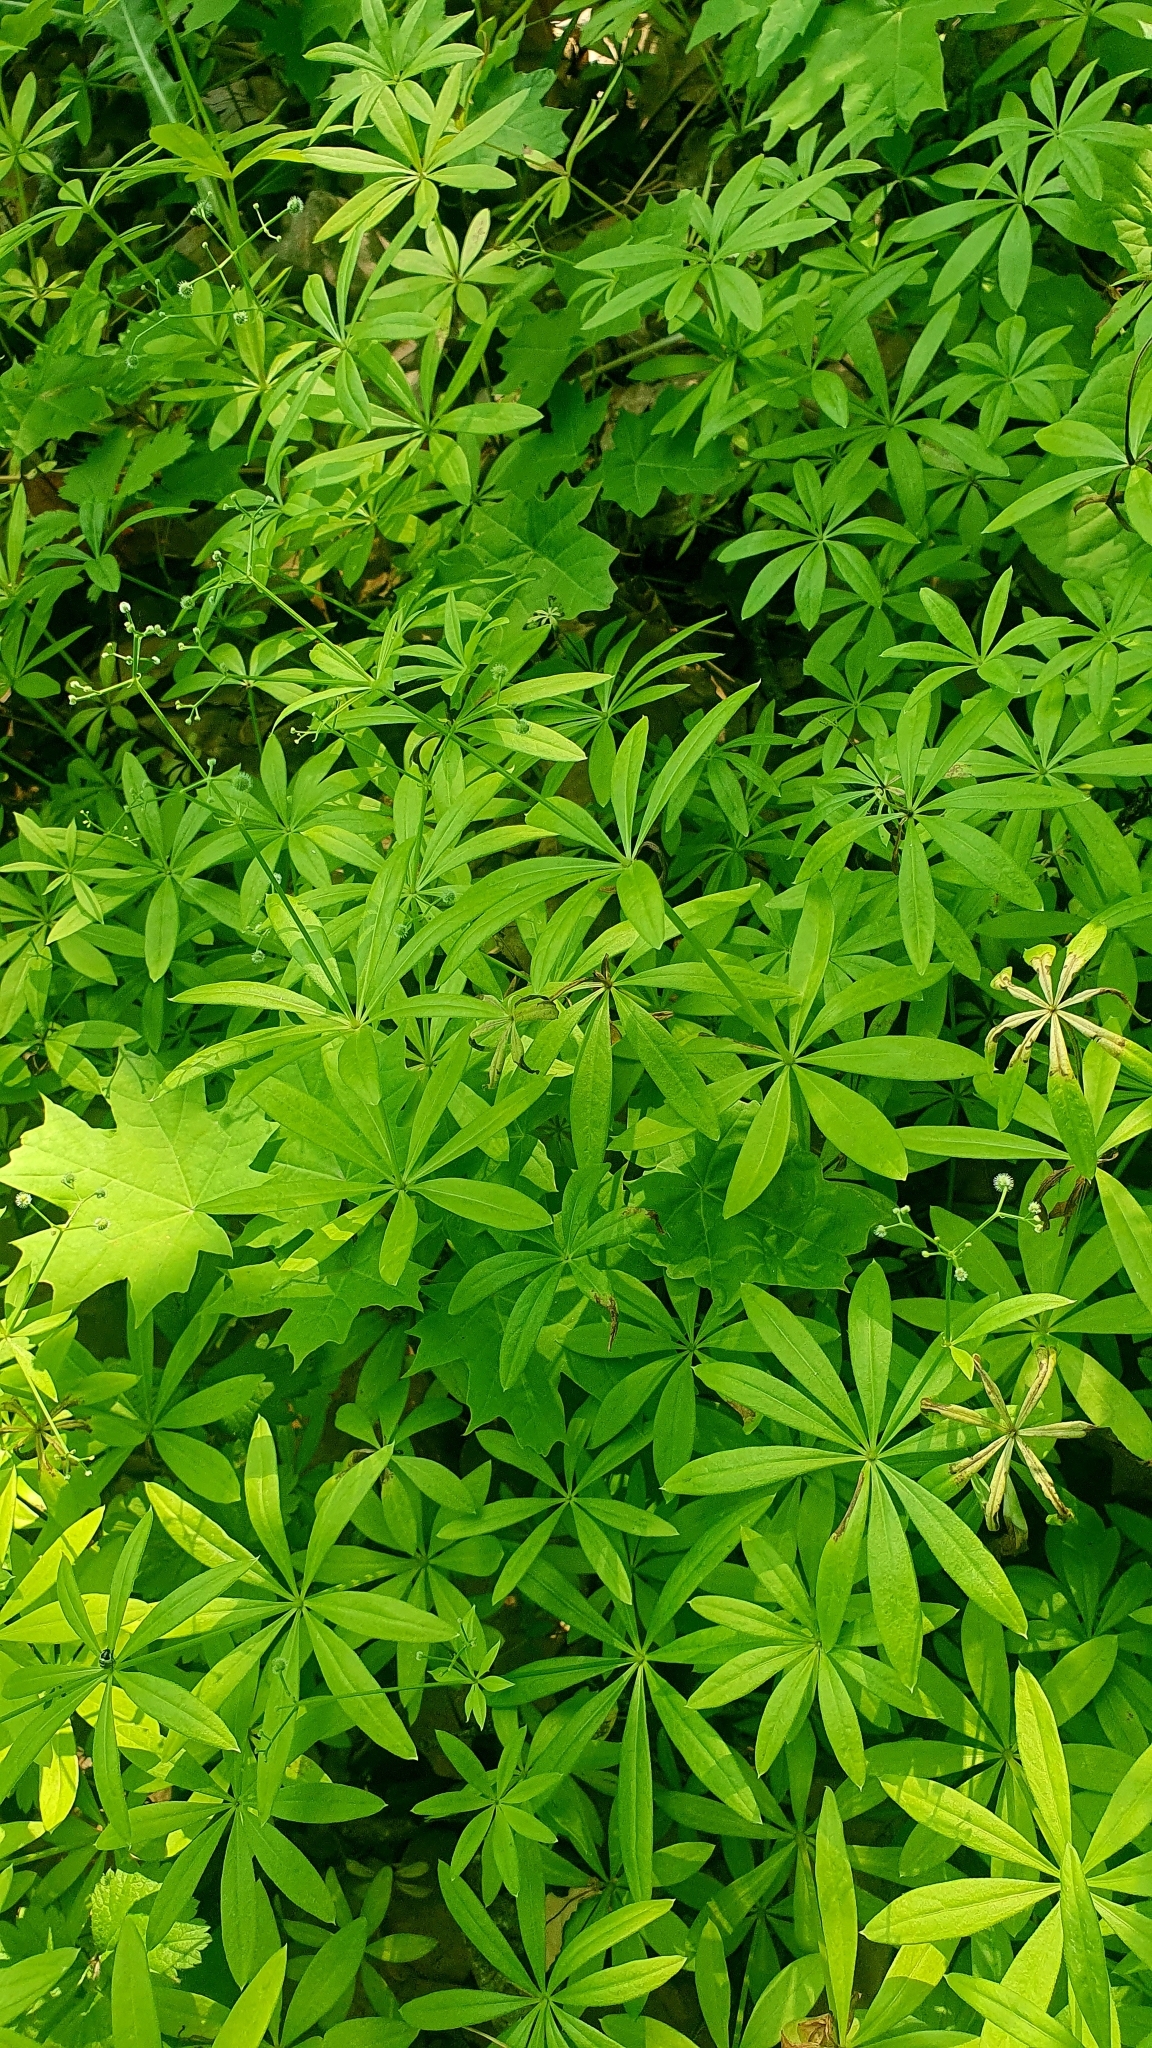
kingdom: Plantae
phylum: Tracheophyta
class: Magnoliopsida
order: Gentianales
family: Rubiaceae
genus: Galium
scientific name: Galium odoratum
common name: Sweet woodruff
